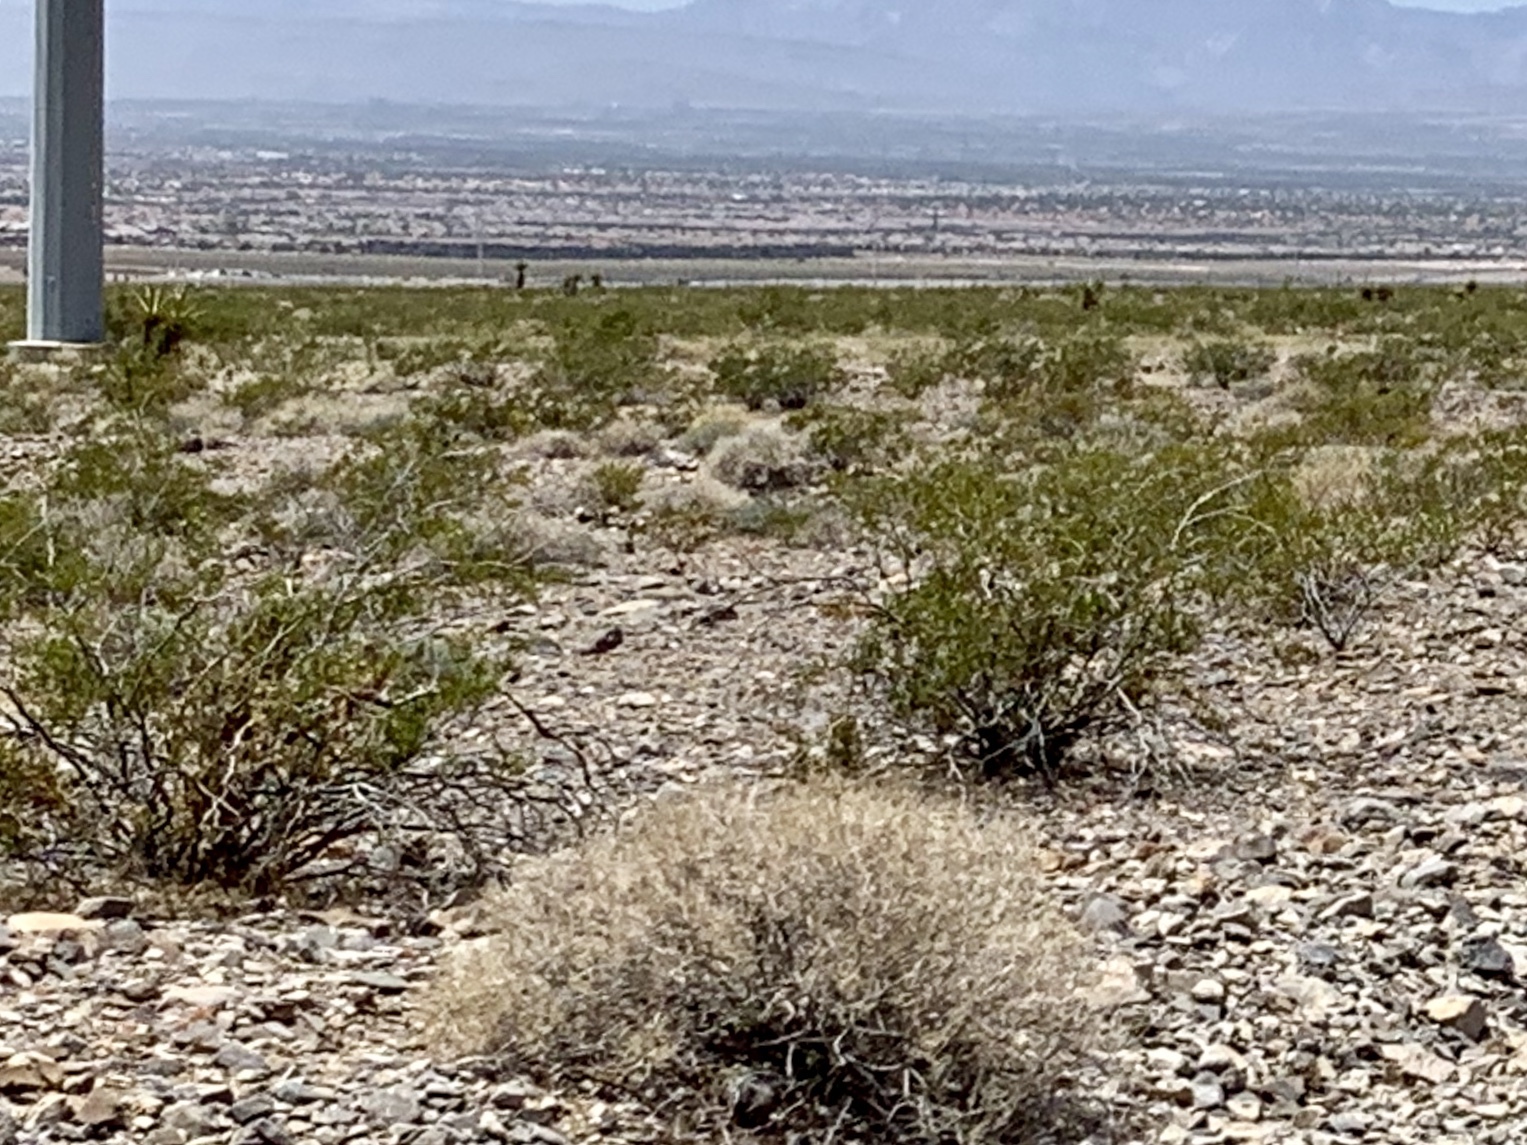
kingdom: Plantae
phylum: Tracheophyta
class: Magnoliopsida
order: Zygophyllales
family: Zygophyllaceae
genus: Larrea
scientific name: Larrea tridentata
